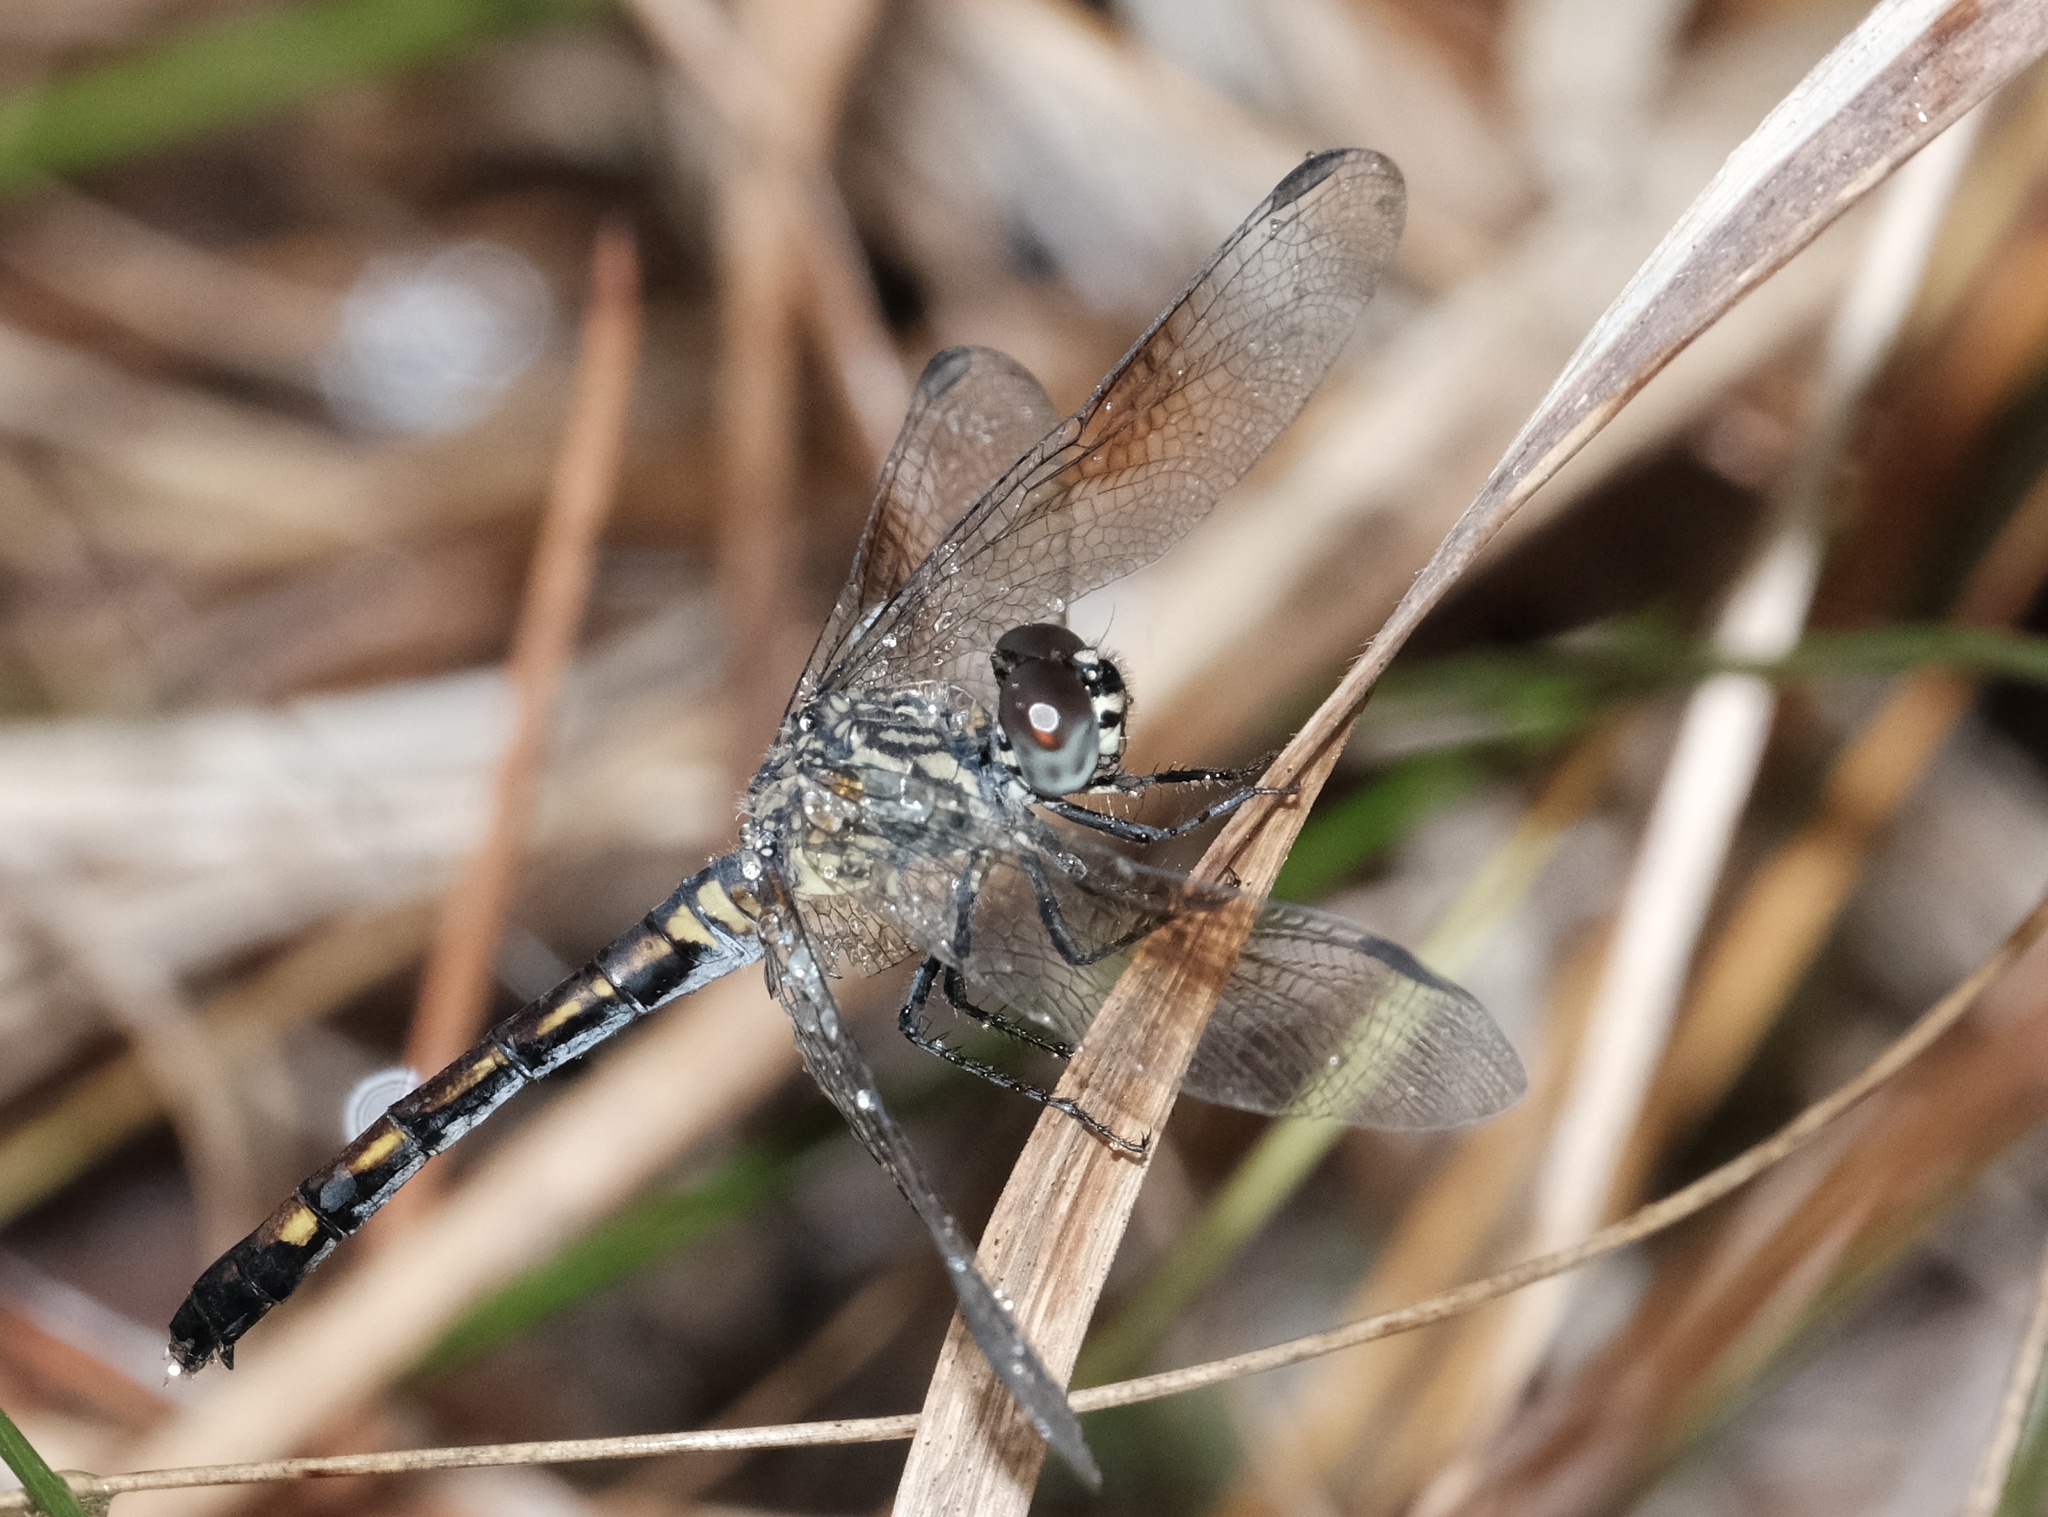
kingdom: Animalia
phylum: Arthropoda
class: Insecta
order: Odonata
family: Libellulidae
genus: Erythrodiplax
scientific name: Erythrodiplax berenice
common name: Seaside dragonlet
